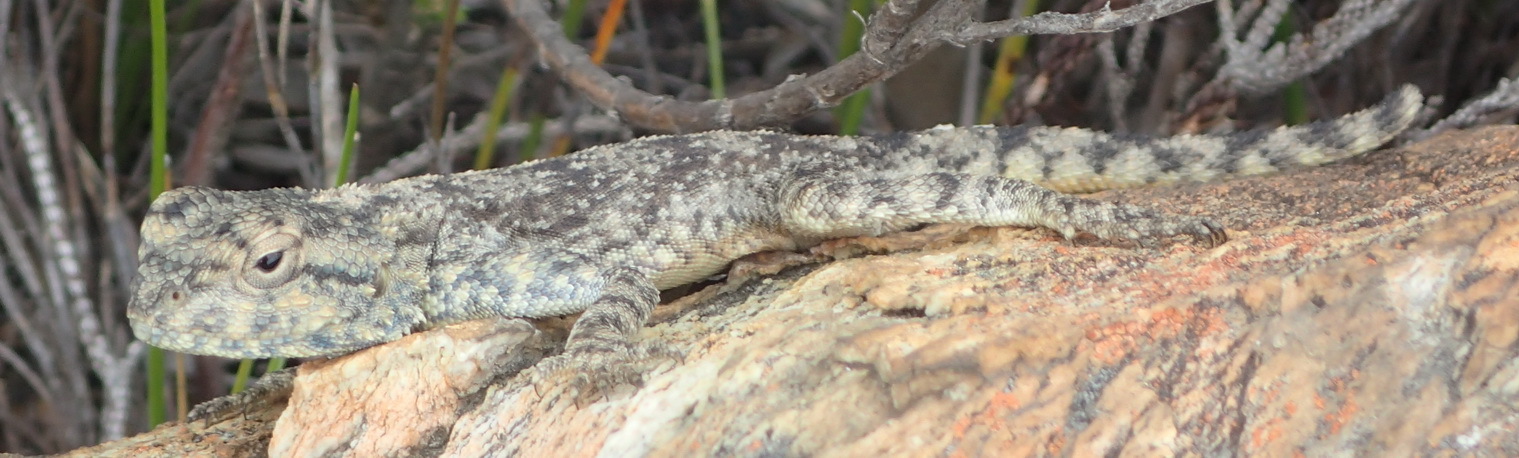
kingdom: Animalia
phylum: Chordata
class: Squamata
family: Agamidae
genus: Agama
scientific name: Agama atra
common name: Southern african rock agama
